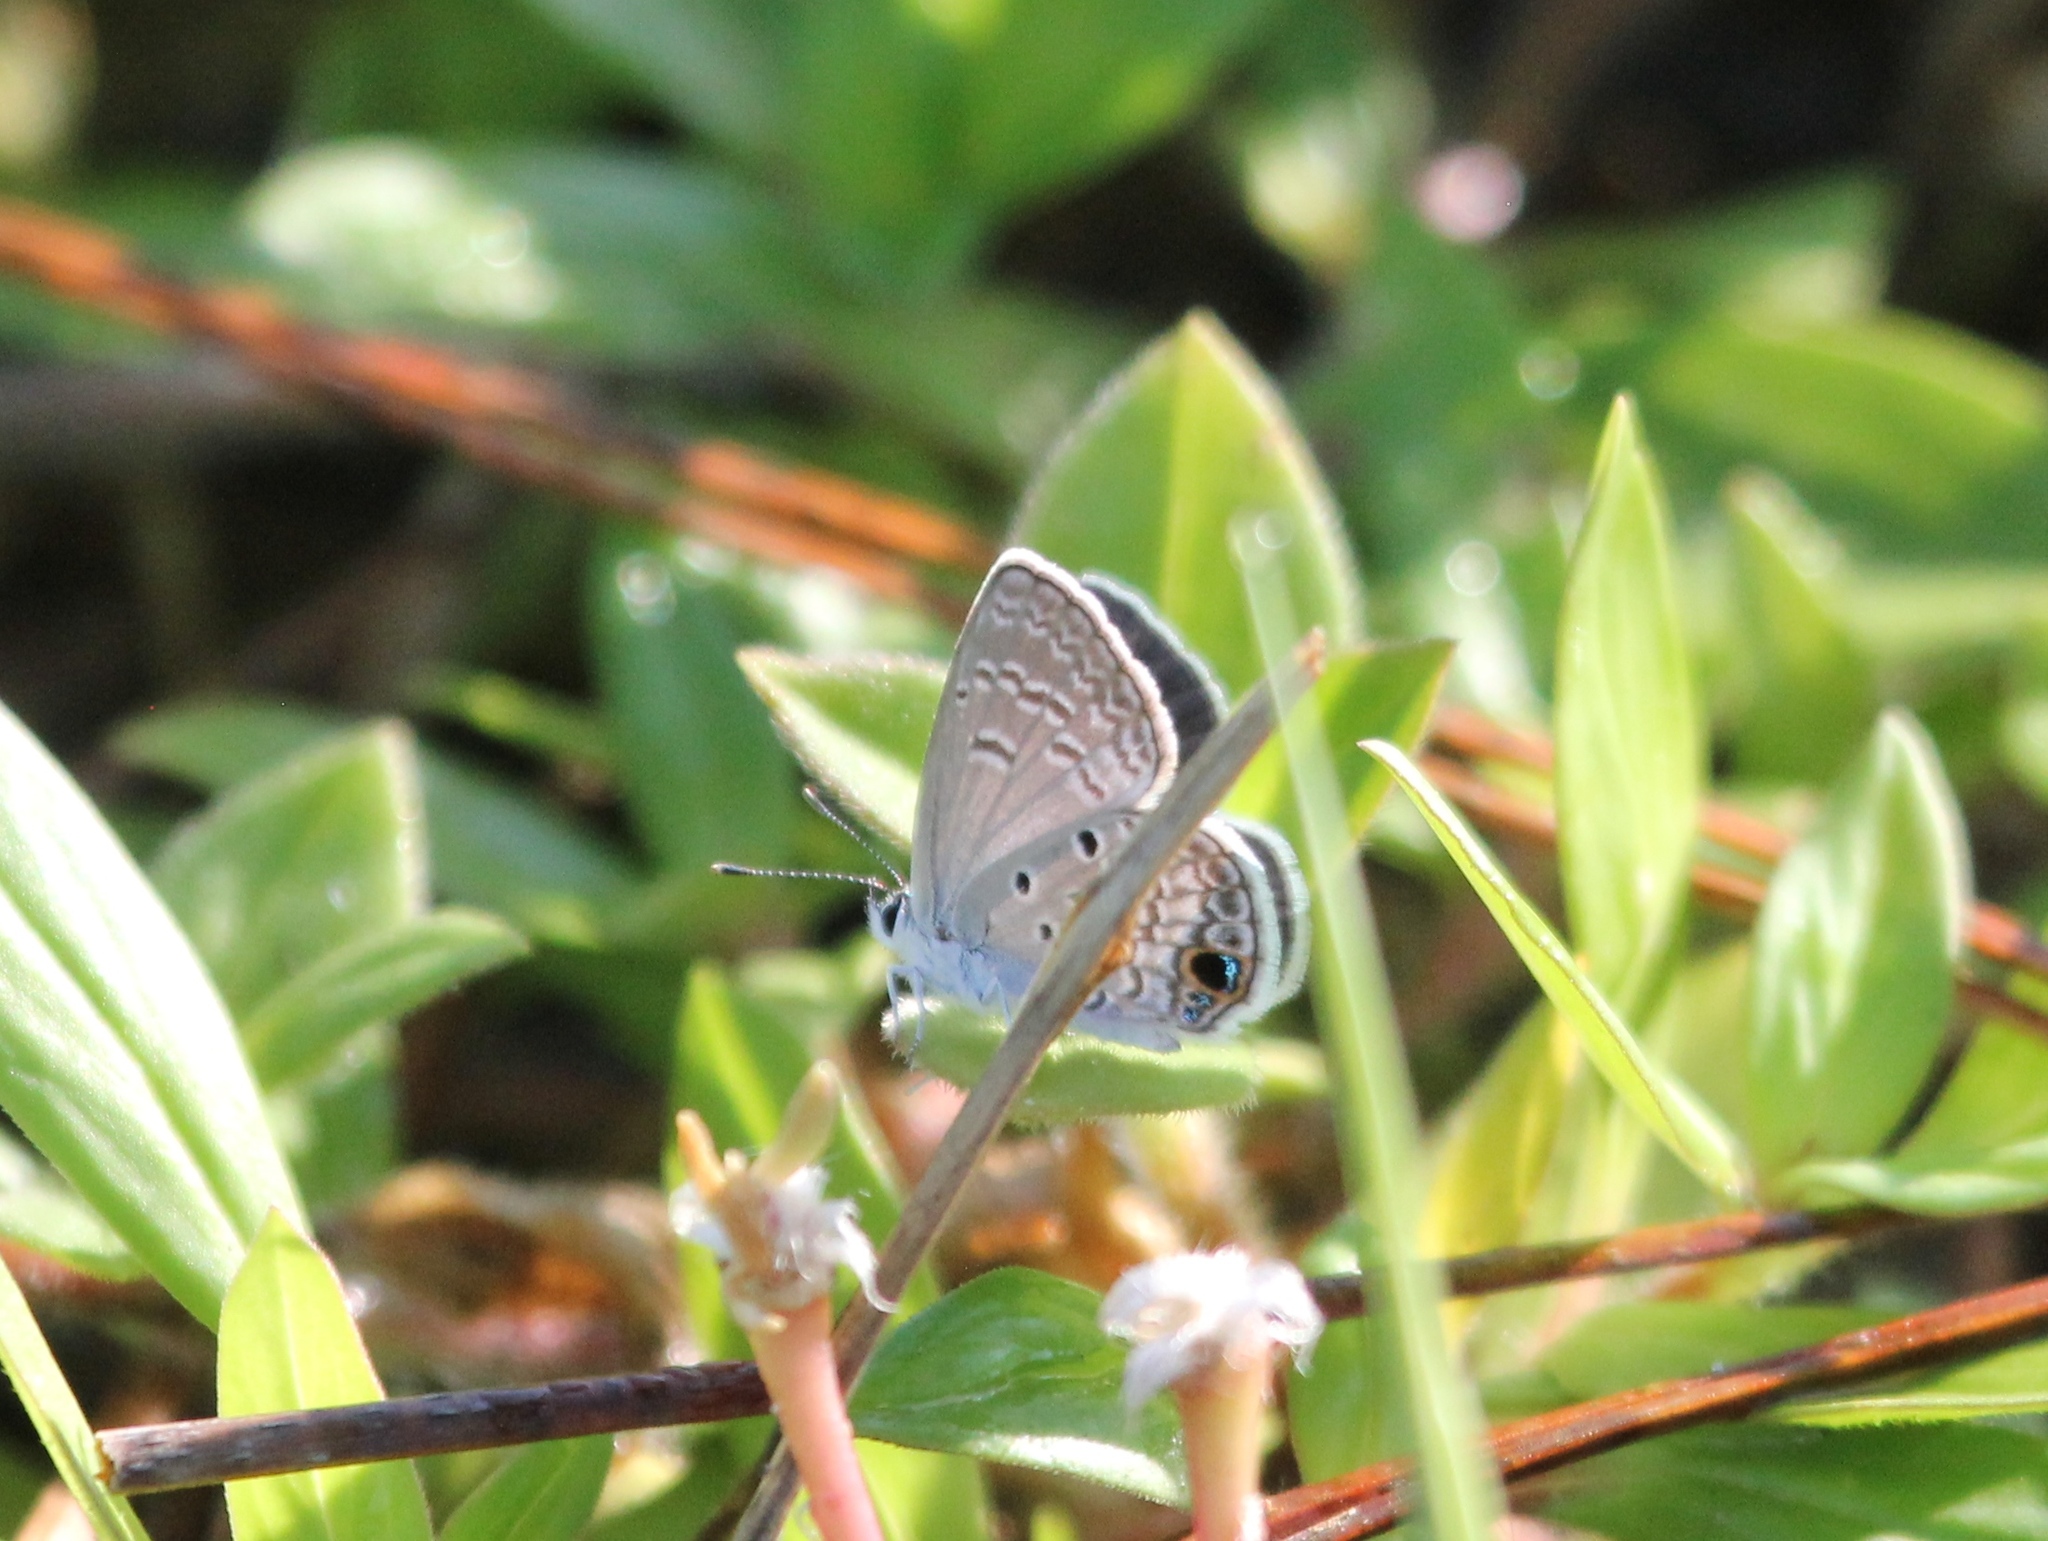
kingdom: Animalia
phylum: Arthropoda
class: Insecta
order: Lepidoptera
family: Lycaenidae
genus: Hemiargus
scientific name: Hemiargus ceraunus
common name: Ceraunus blue
